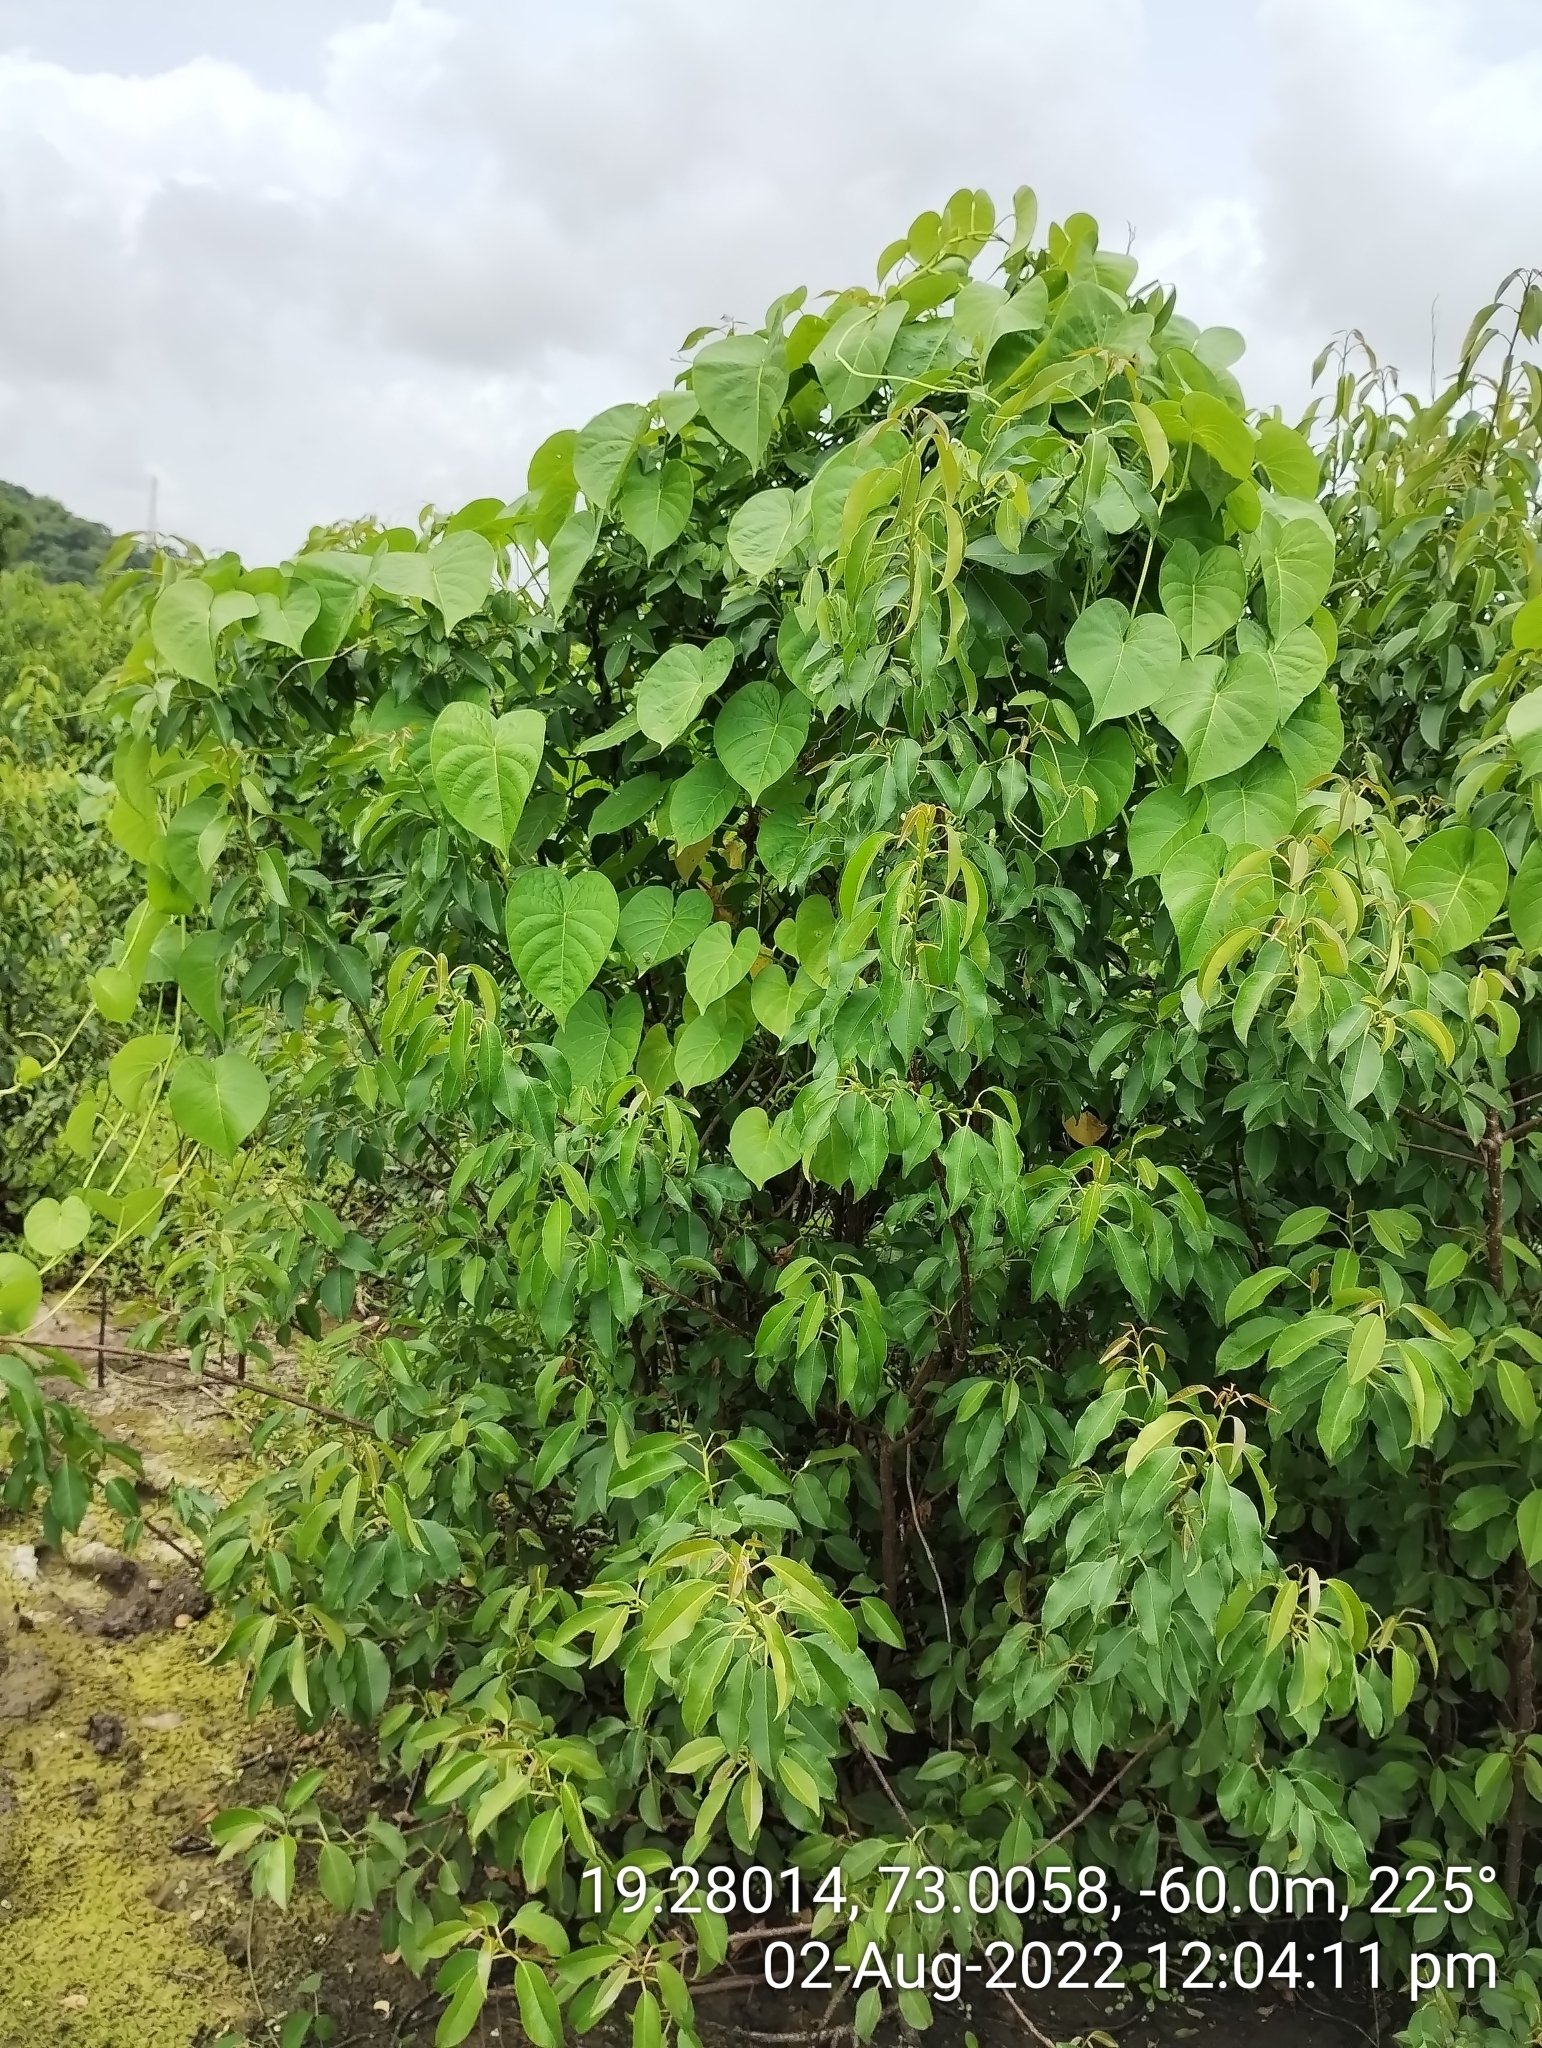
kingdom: Plantae
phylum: Tracheophyta
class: Magnoliopsida
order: Malpighiales
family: Euphorbiaceae
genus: Excoecaria
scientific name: Excoecaria agallocha
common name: River poisontree
